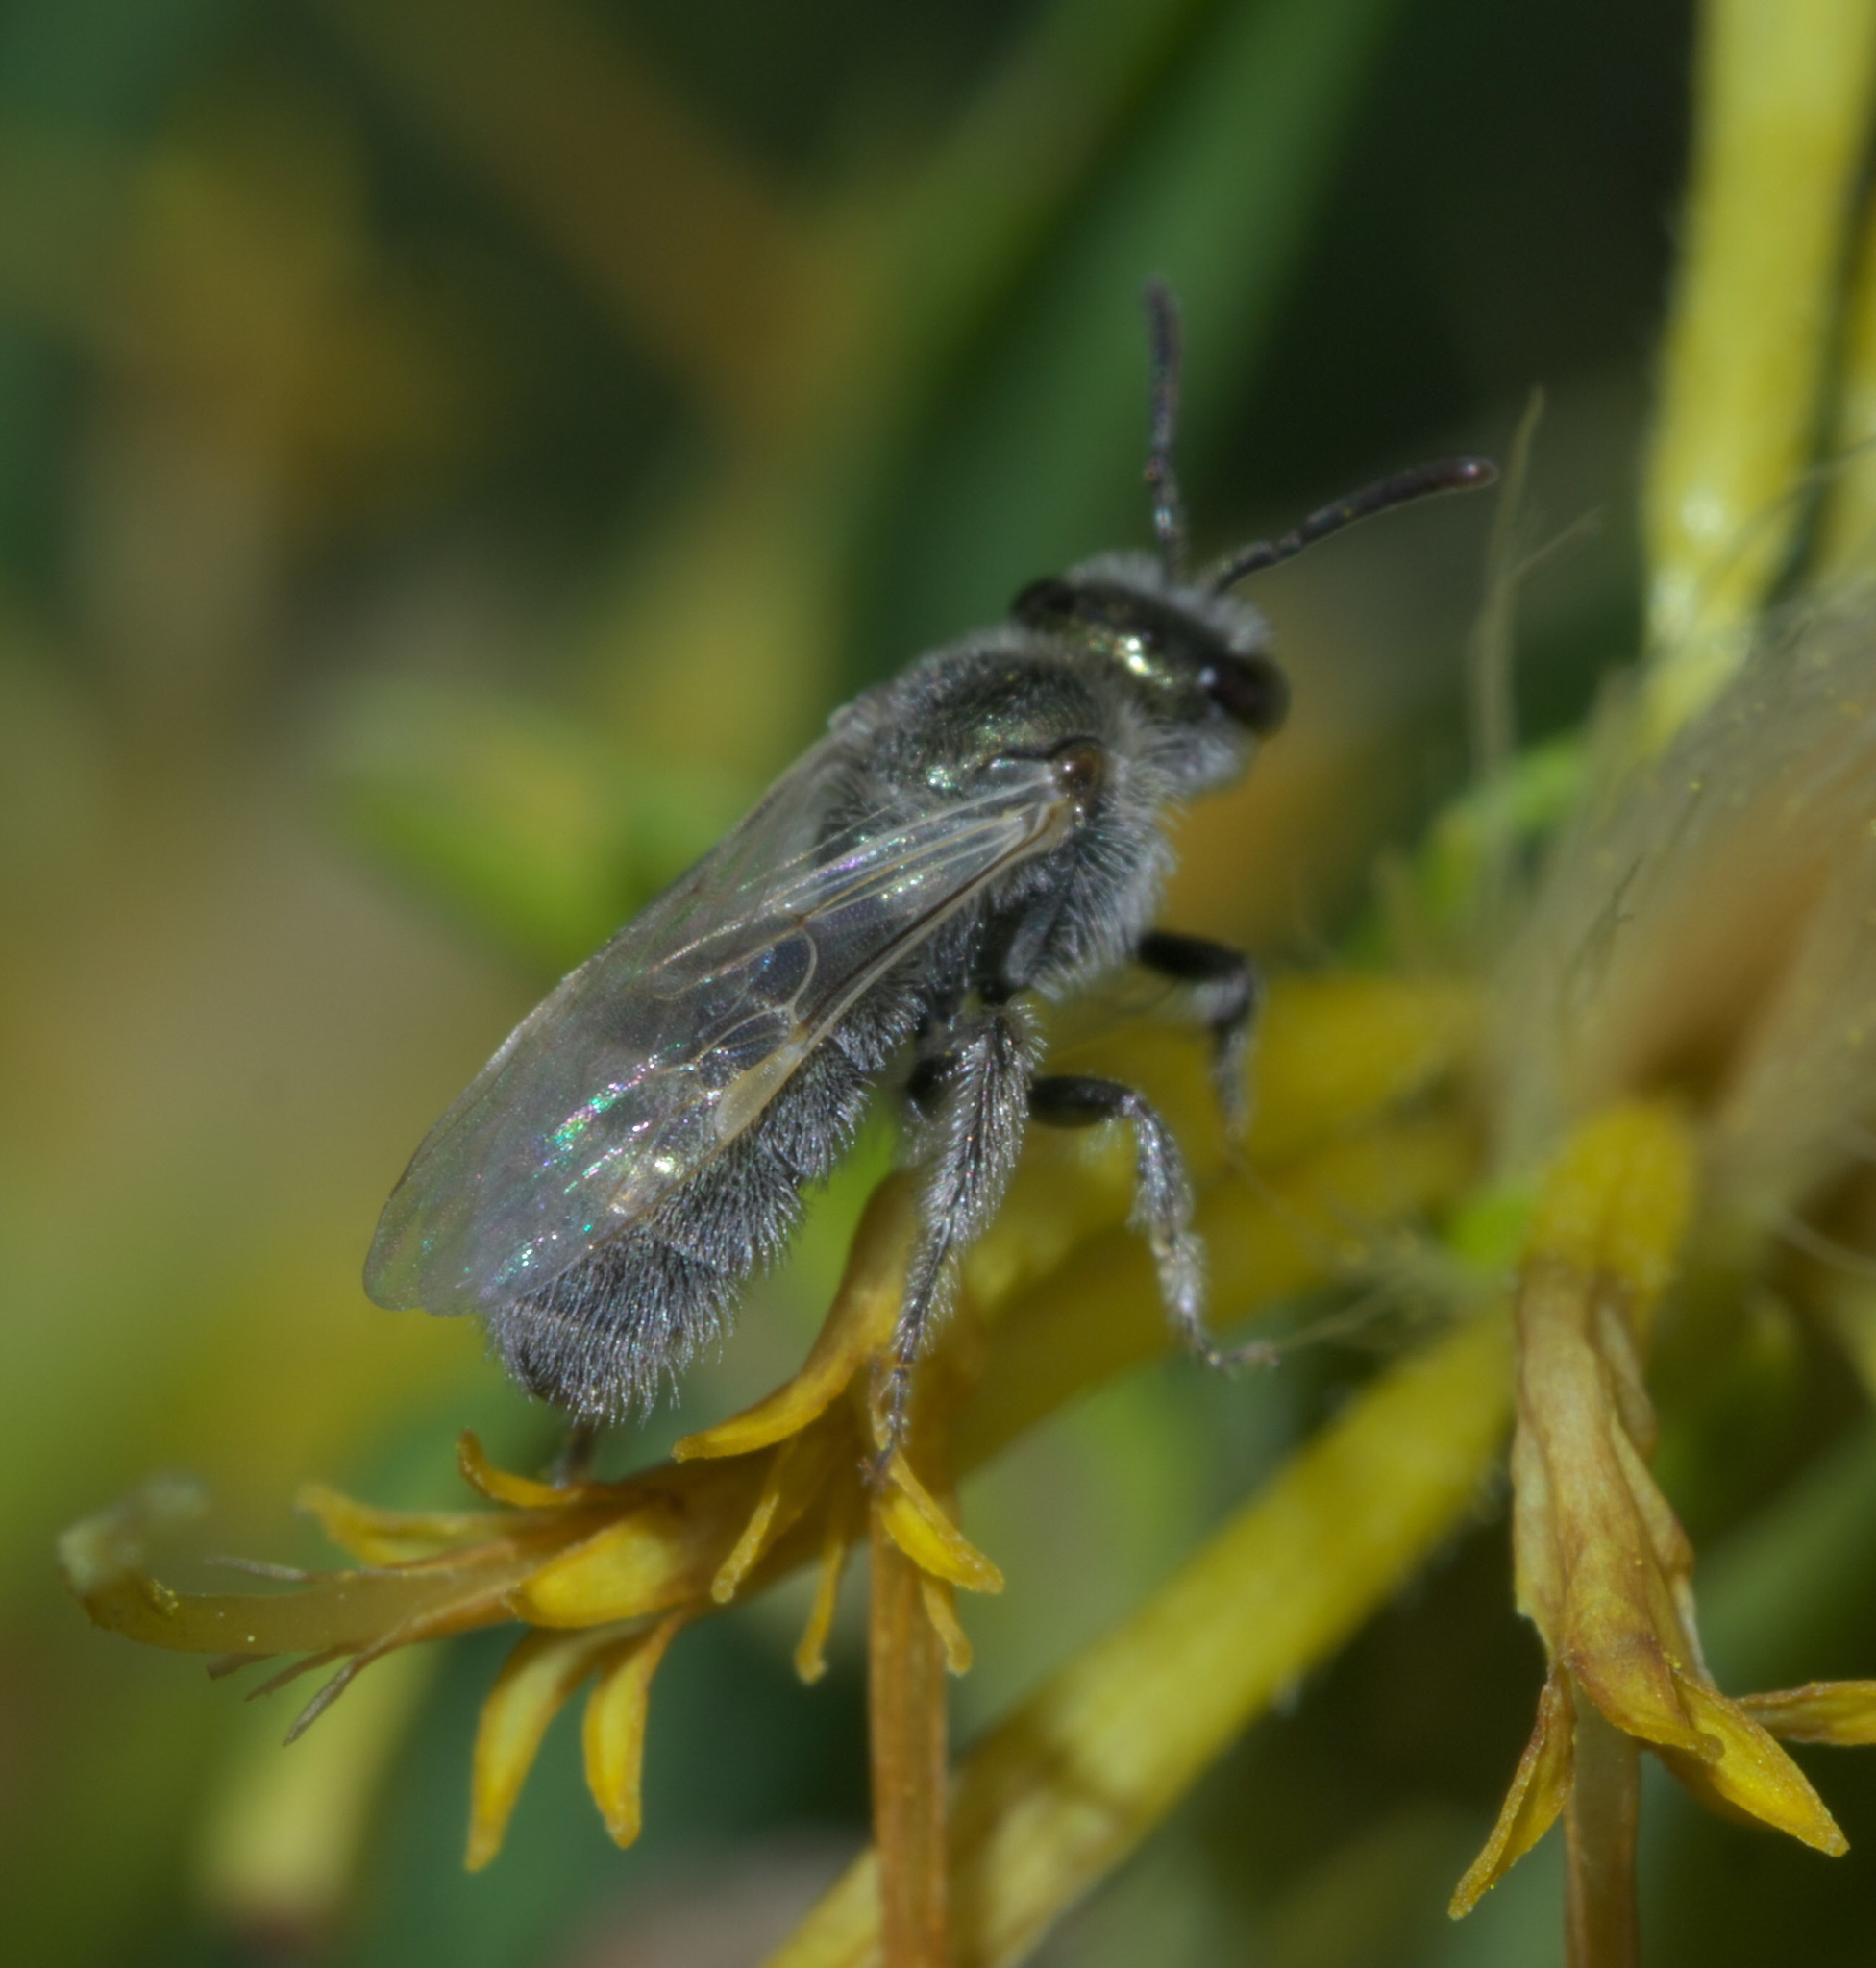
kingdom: Animalia
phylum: Arthropoda
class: Insecta
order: Hymenoptera
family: Halictidae
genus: Lasioglossum
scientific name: Lasioglossum semicaeruleum
